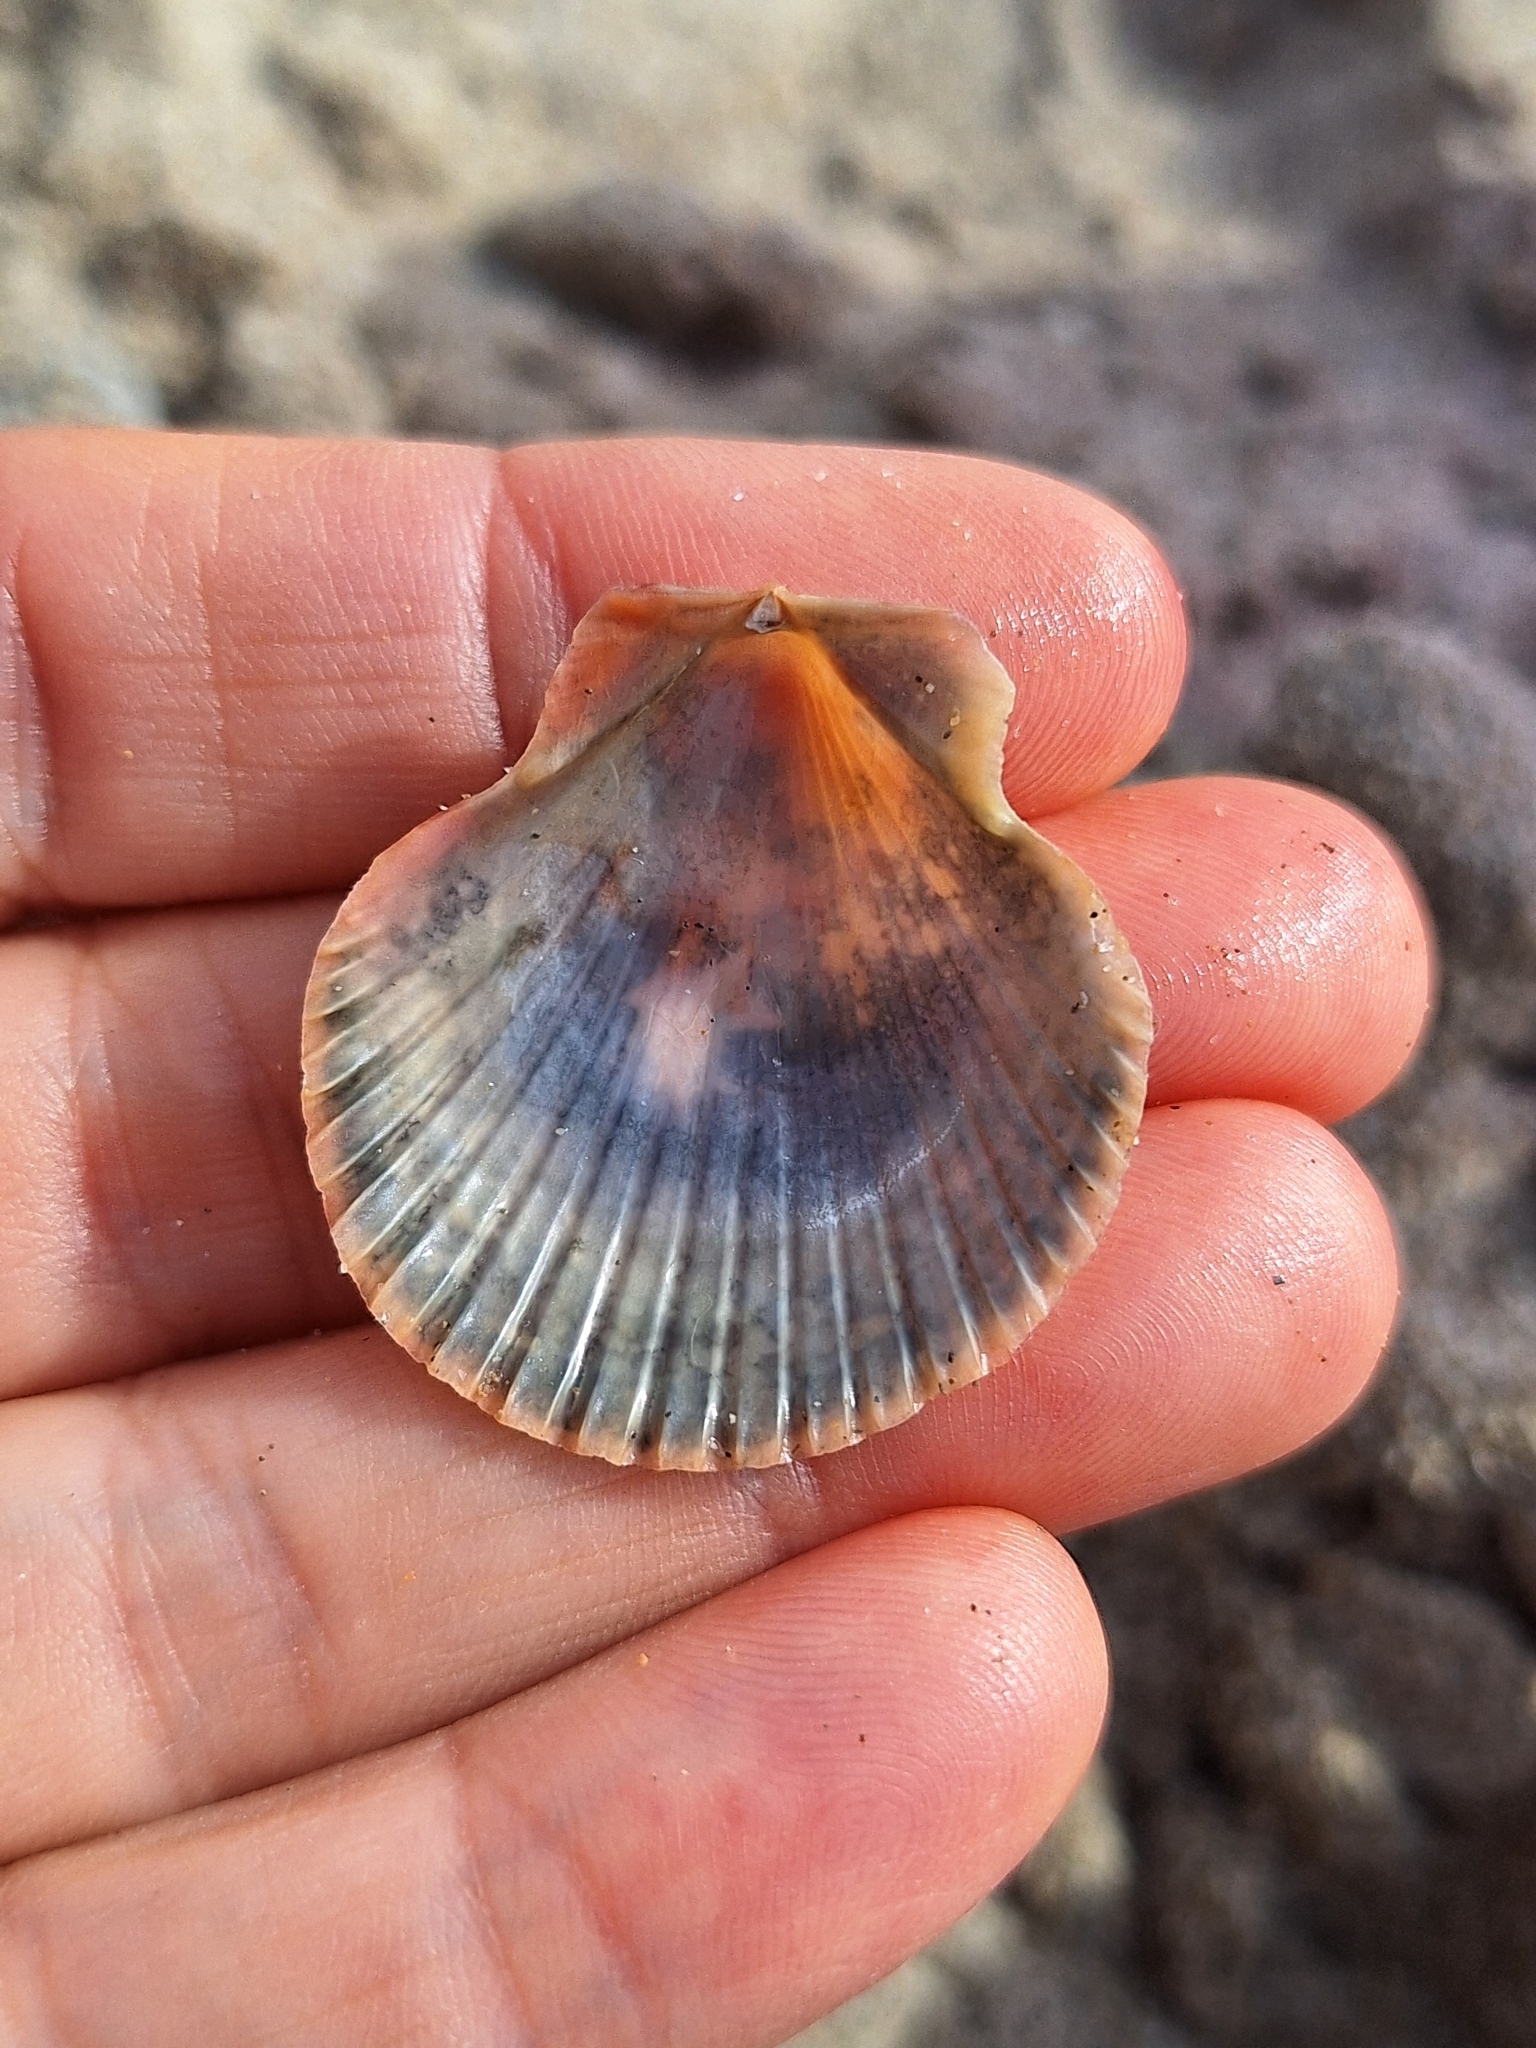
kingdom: Animalia
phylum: Mollusca
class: Bivalvia
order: Pectinida
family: Pectinidae
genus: Aequipecten
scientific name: Aequipecten opercularis
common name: Queen scallop
